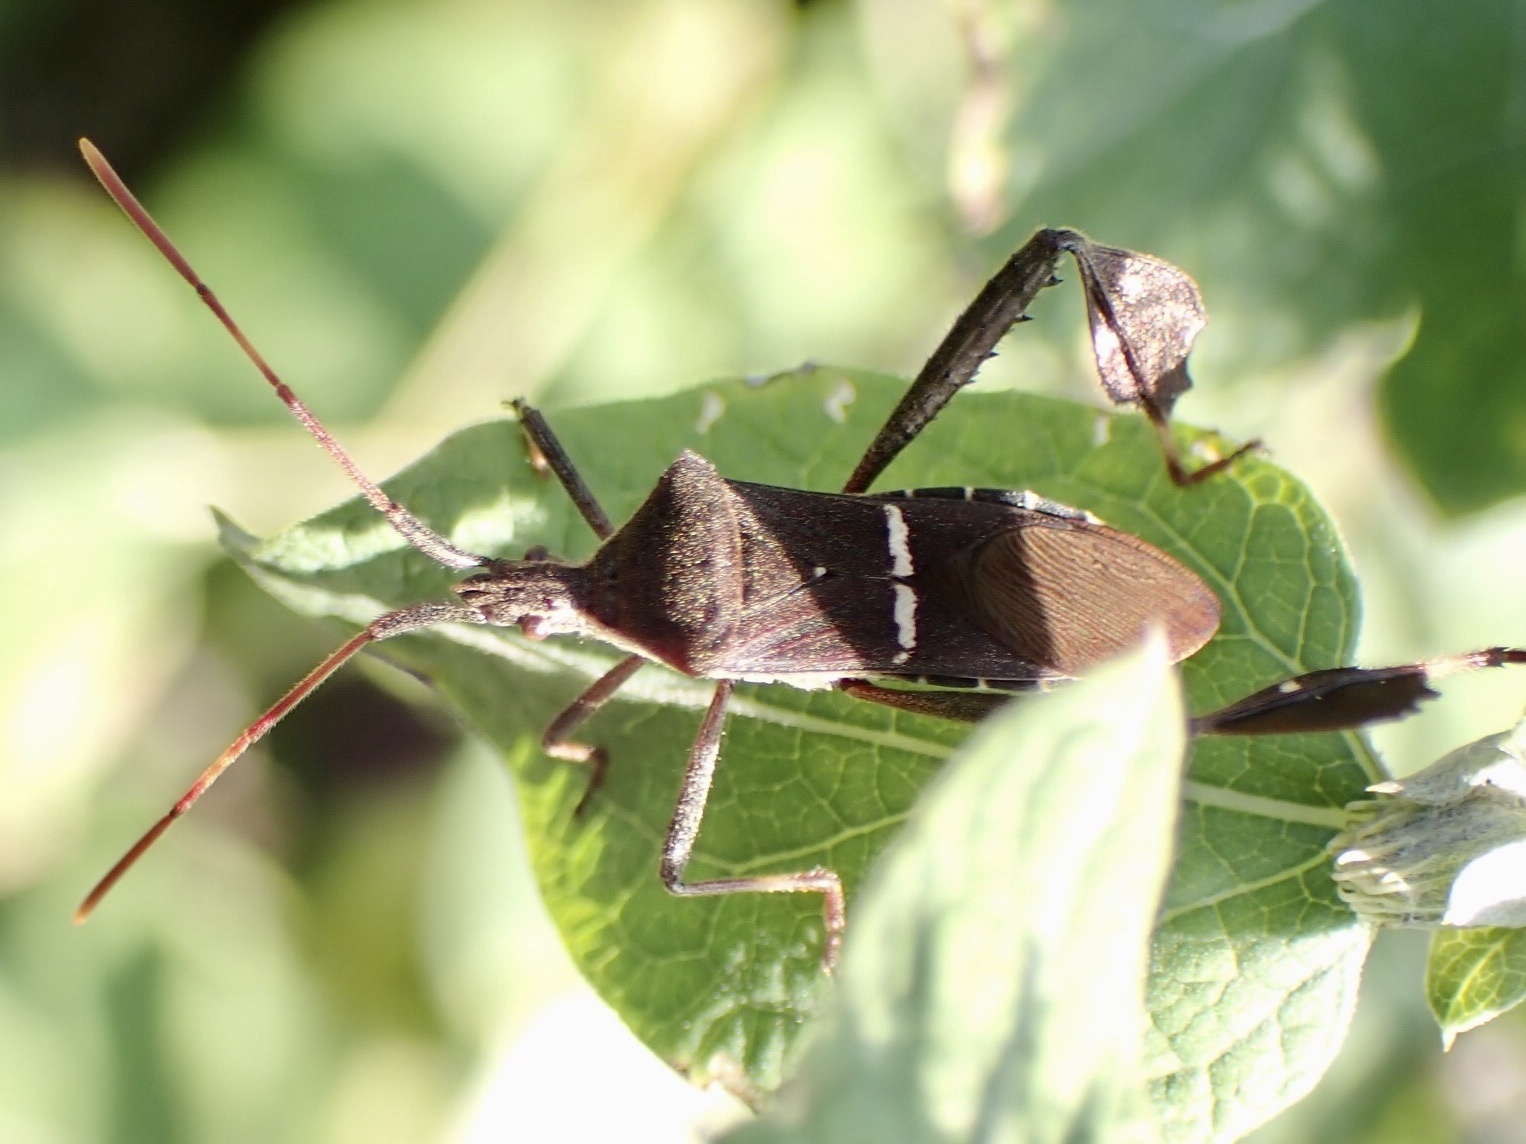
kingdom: Animalia
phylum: Arthropoda
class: Insecta
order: Hemiptera
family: Coreidae
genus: Leptoglossus
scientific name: Leptoglossus phyllopus
